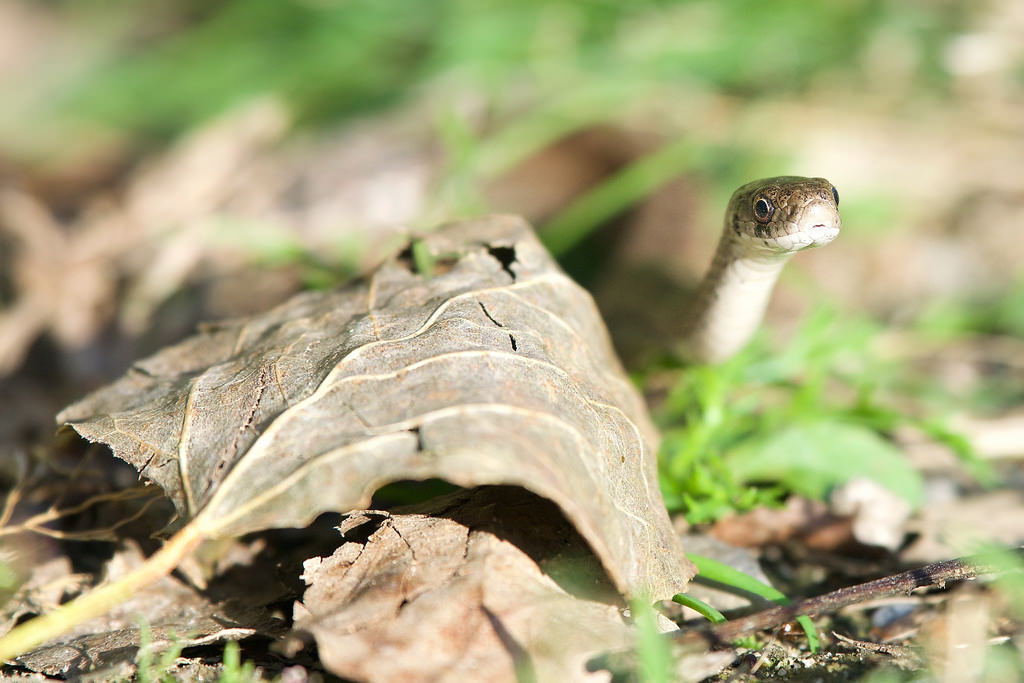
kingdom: Animalia
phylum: Chordata
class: Squamata
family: Colubridae
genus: Storeria
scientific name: Storeria dekayi
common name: (dekay’s) brown snake
